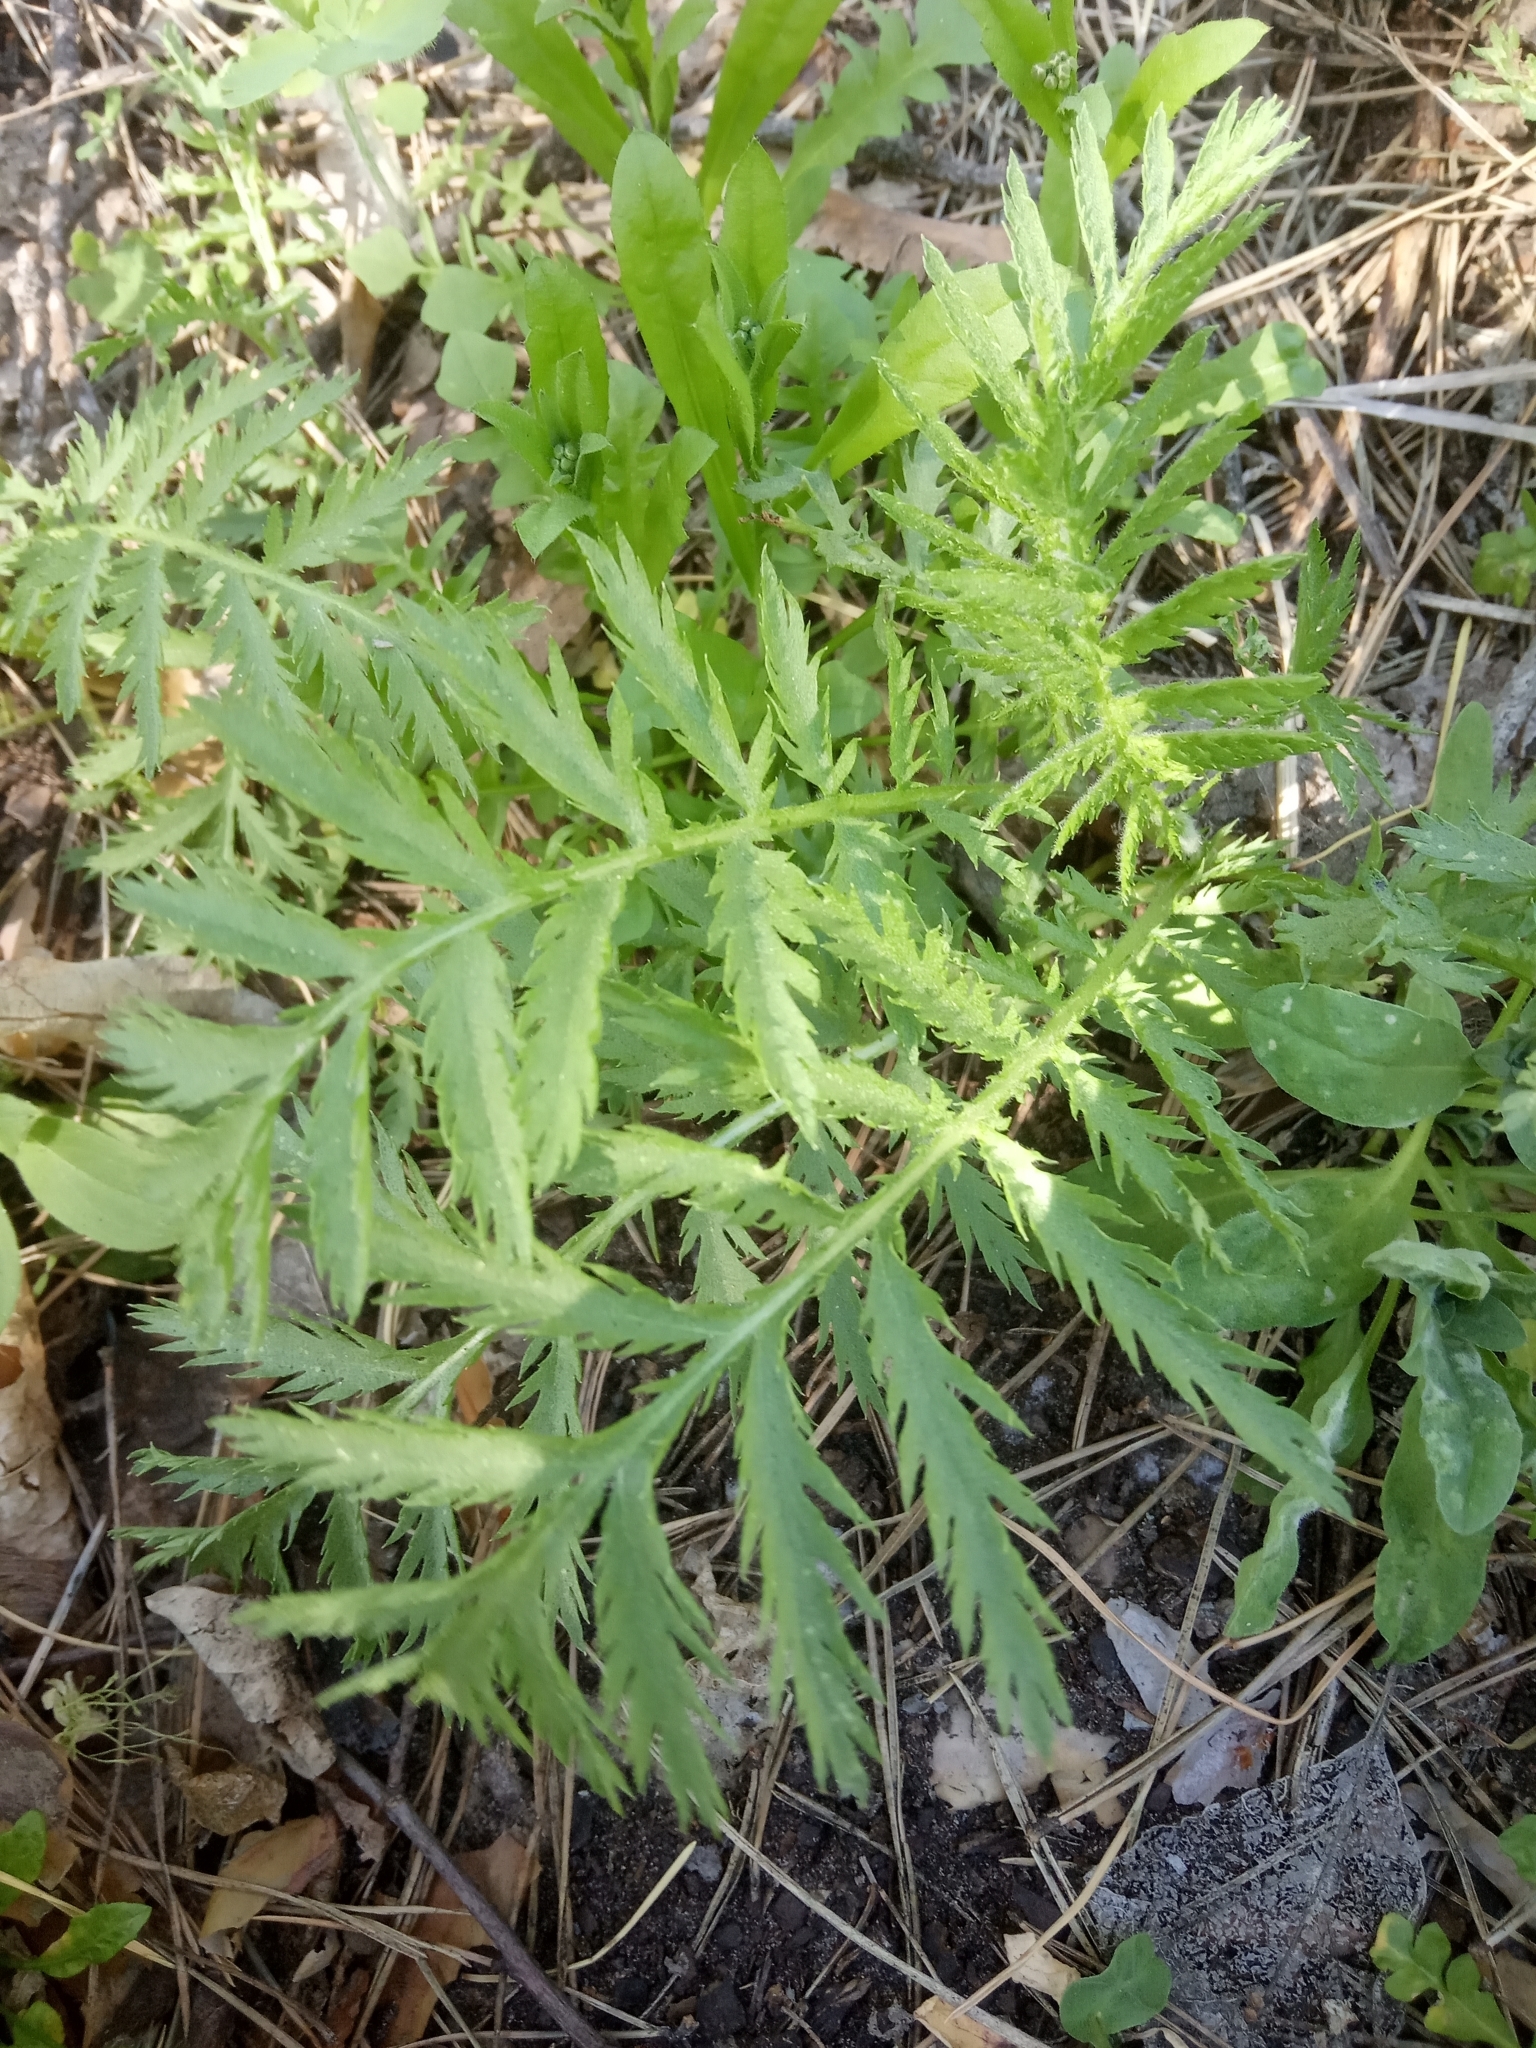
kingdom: Plantae
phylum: Tracheophyta
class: Magnoliopsida
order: Asterales
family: Asteraceae
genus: Tanacetum
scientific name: Tanacetum vulgare
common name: Common tansy
